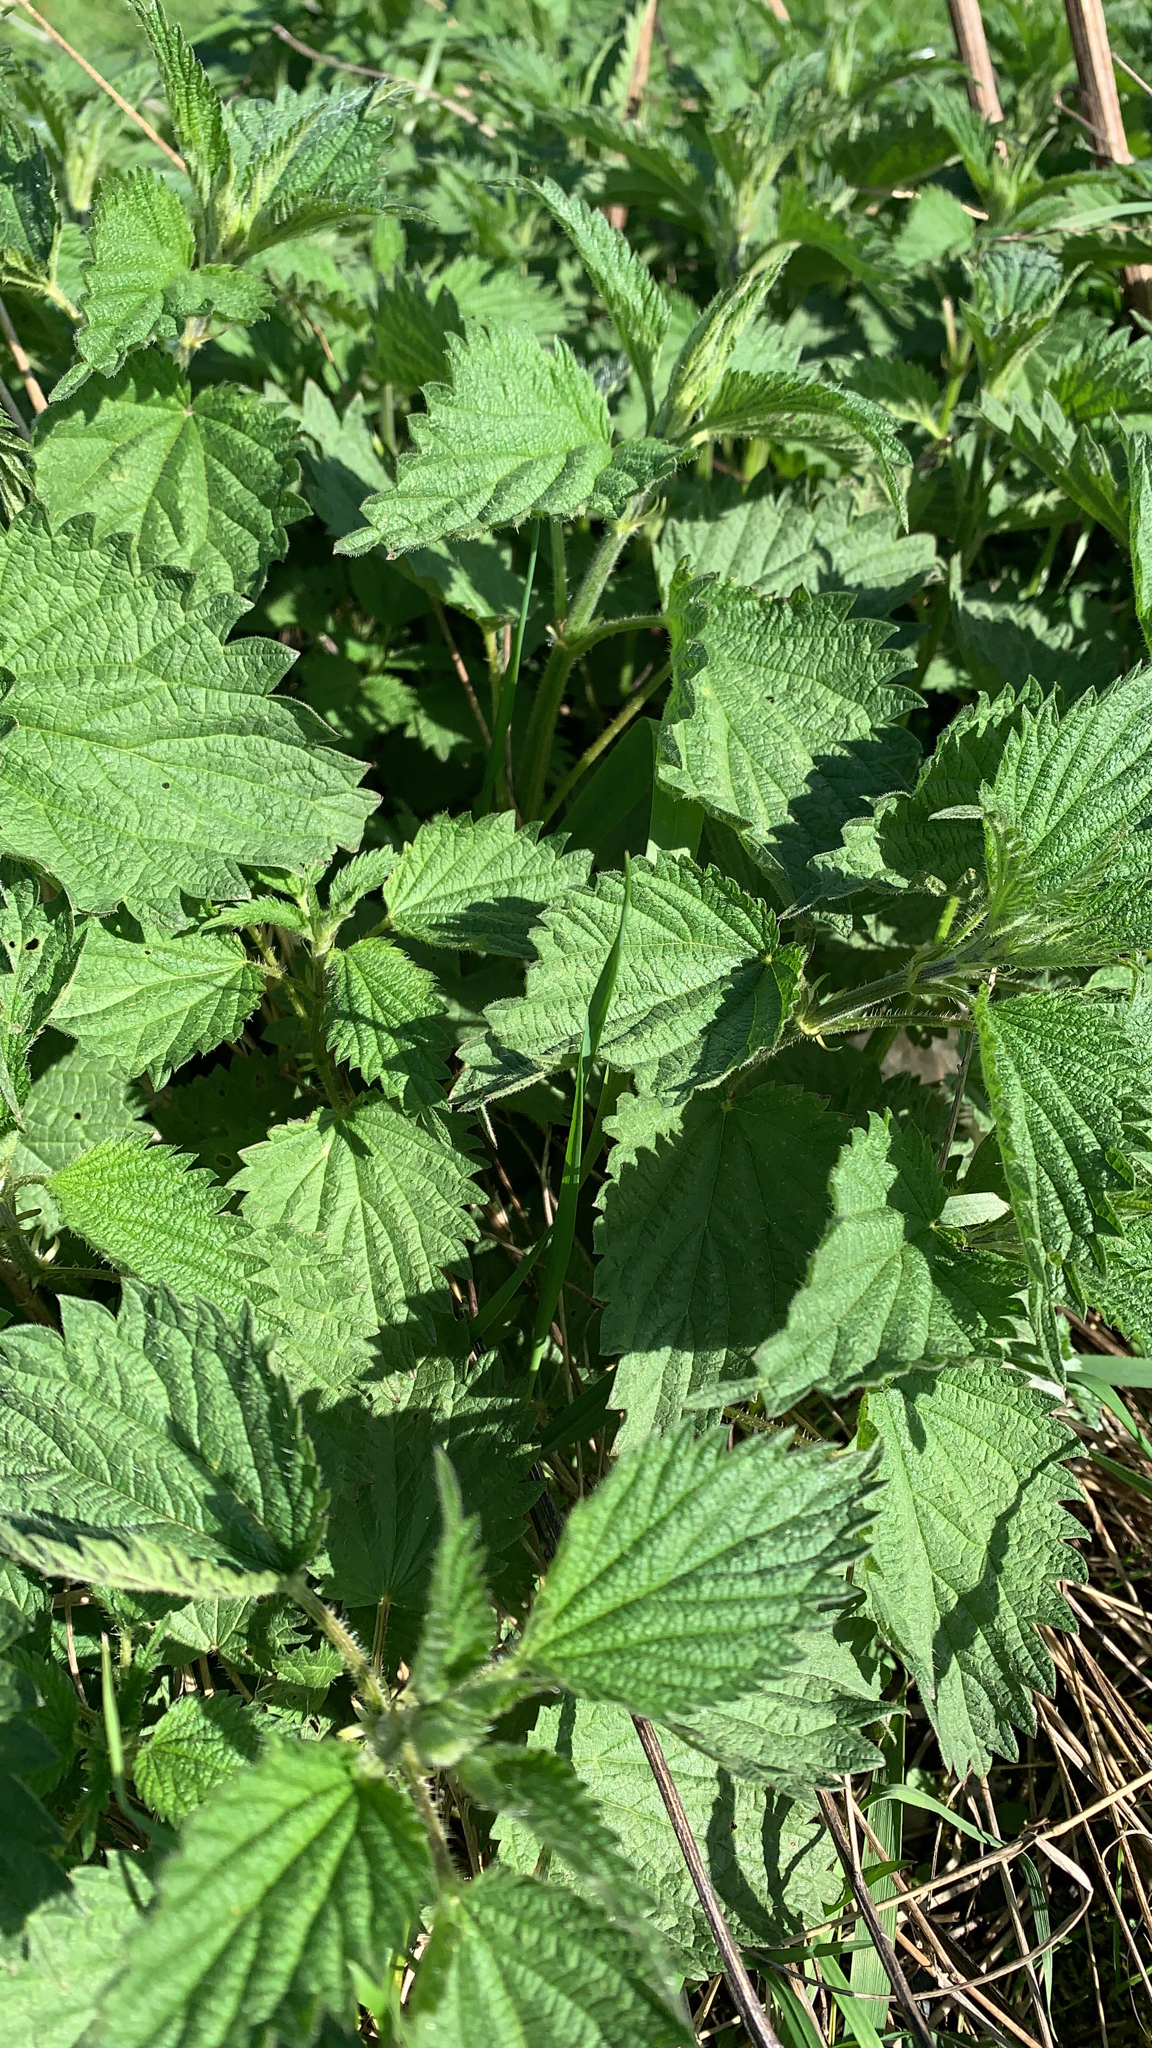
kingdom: Plantae
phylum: Tracheophyta
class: Magnoliopsida
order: Rosales
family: Urticaceae
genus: Urtica
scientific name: Urtica dioica
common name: Common nettle
